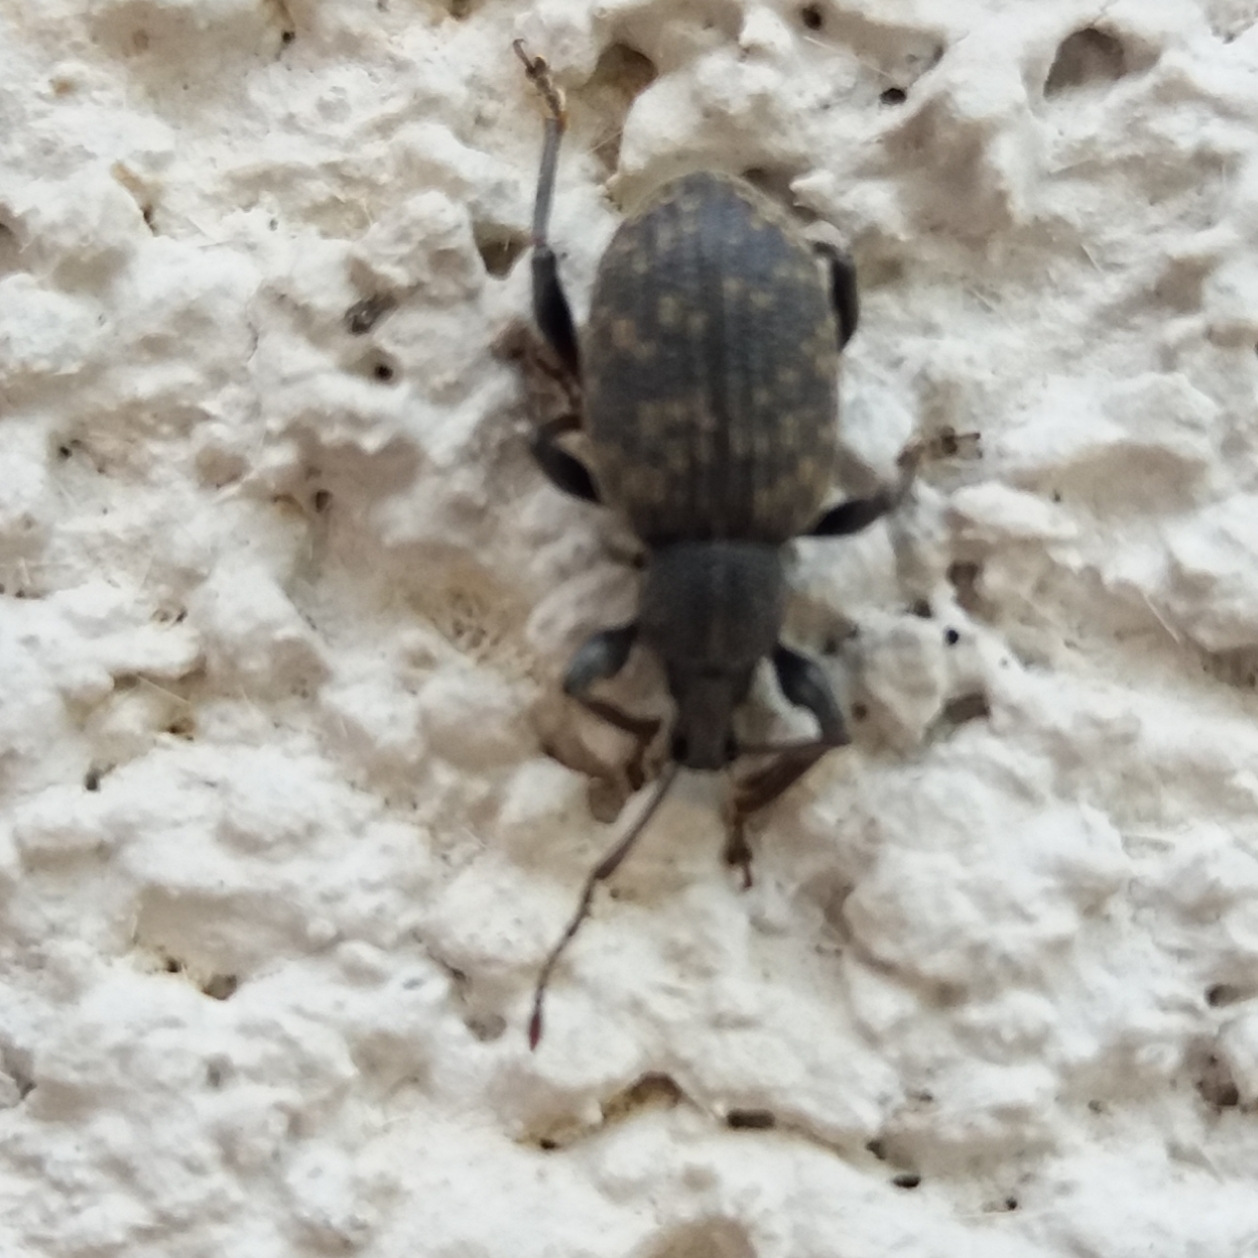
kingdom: Animalia
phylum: Arthropoda
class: Insecta
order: Coleoptera
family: Curculionidae
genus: Otiorhynchus
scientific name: Otiorhynchus sulcatus
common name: Black vine weevil
